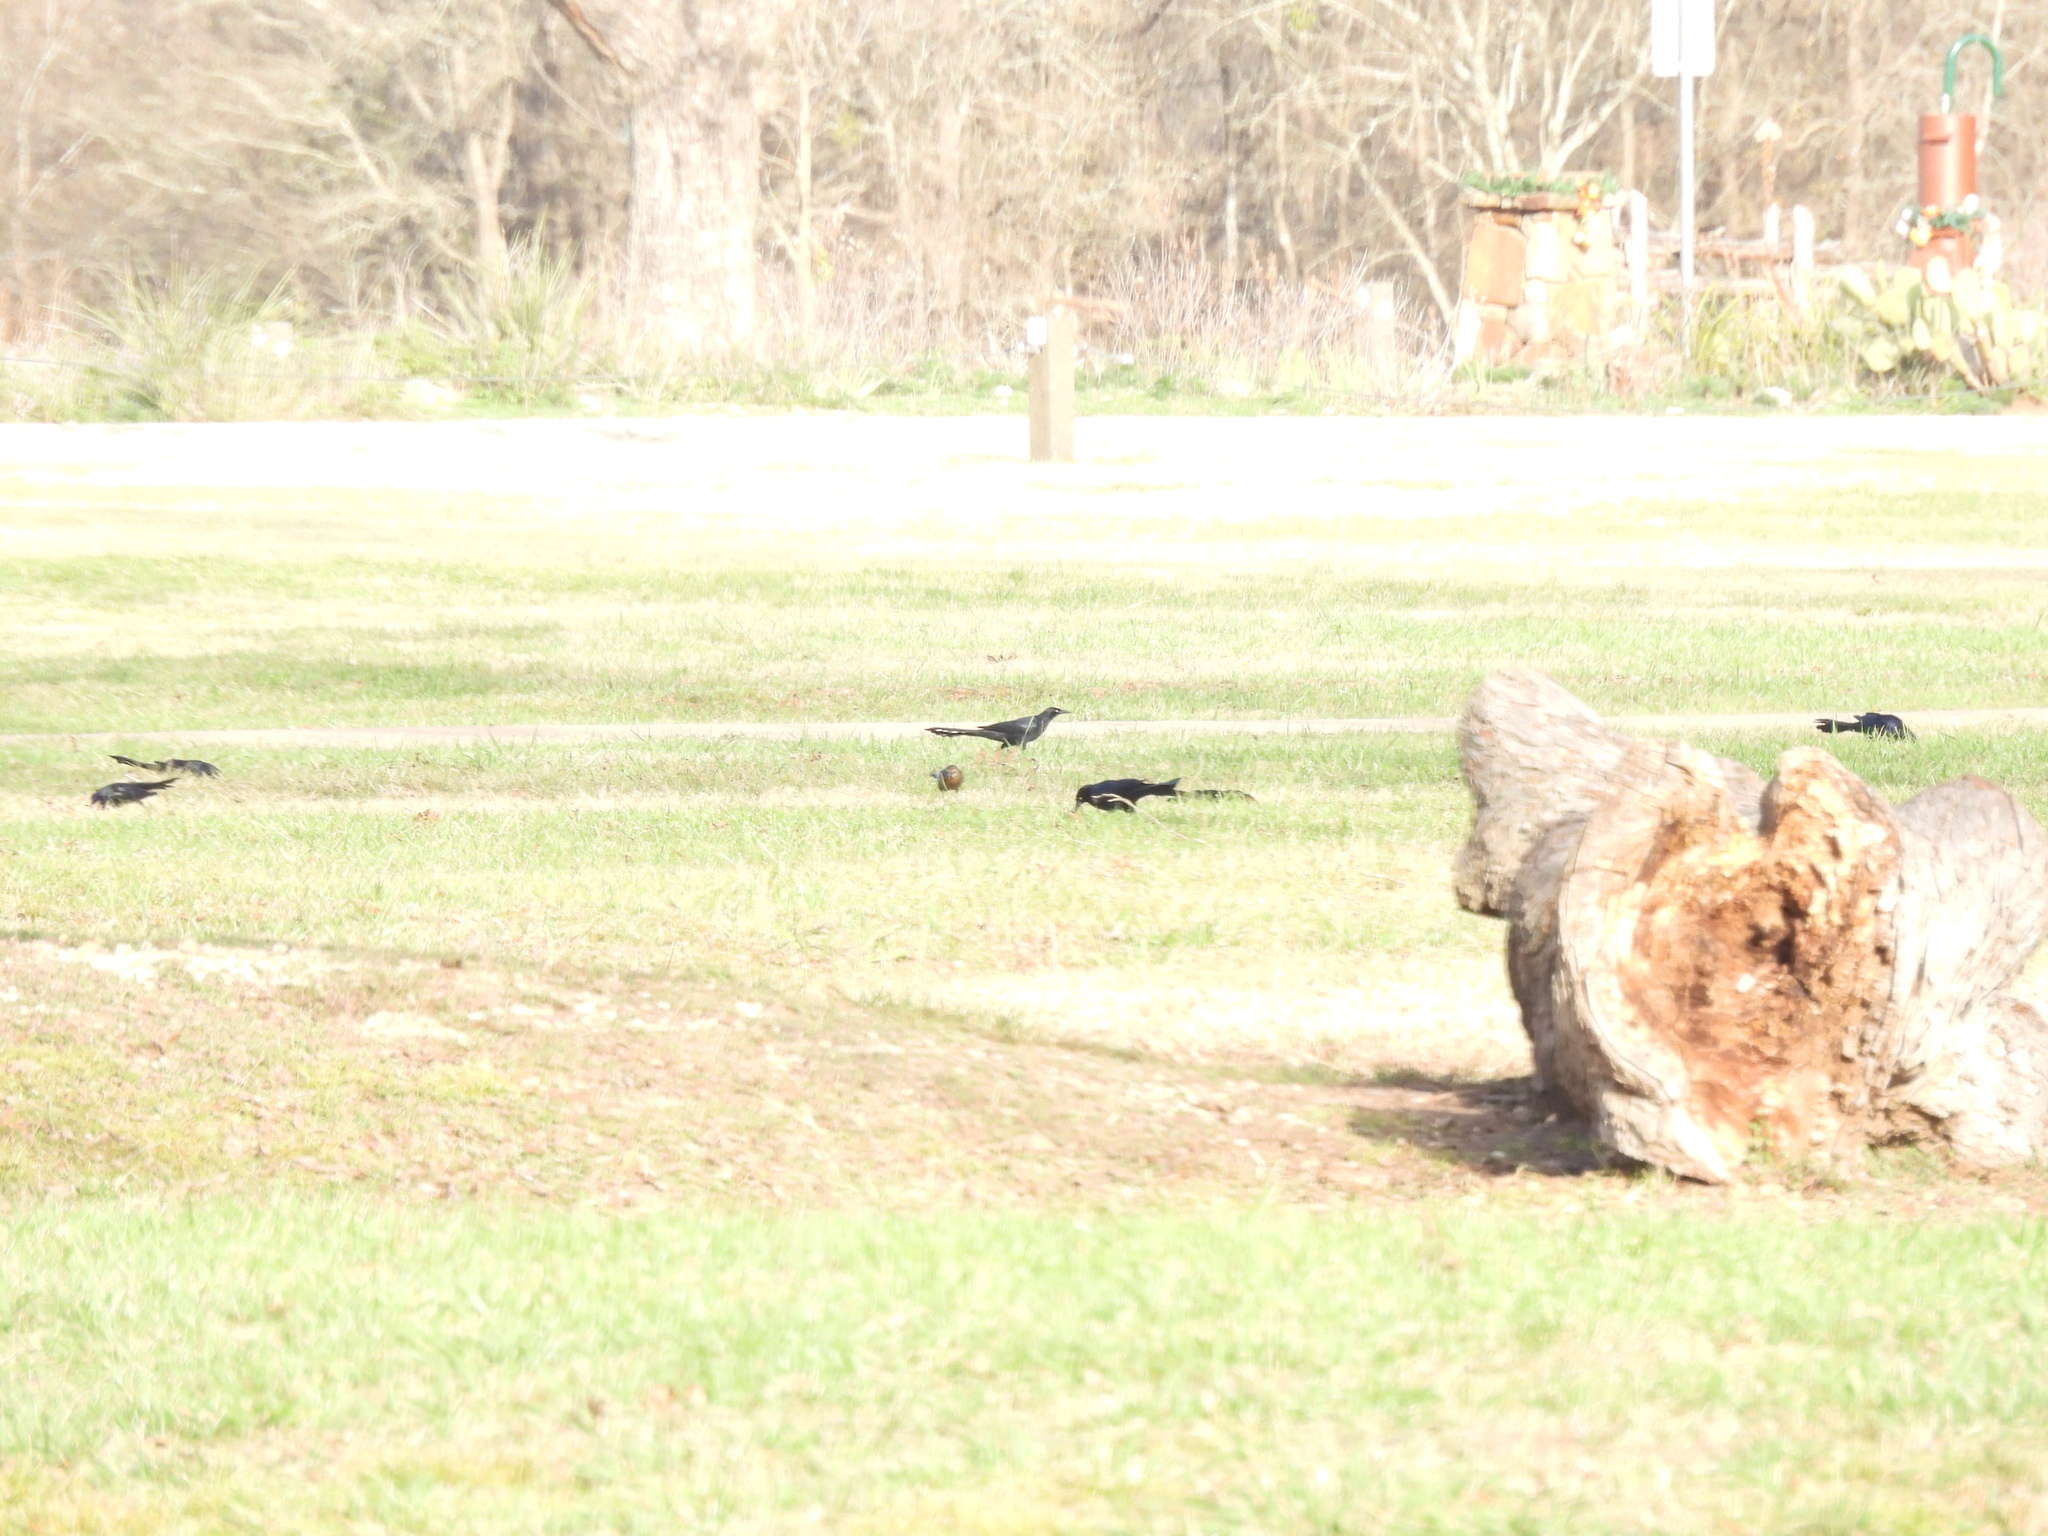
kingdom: Animalia
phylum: Chordata
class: Aves
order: Passeriformes
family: Icteridae
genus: Quiscalus
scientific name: Quiscalus mexicanus
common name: Great-tailed grackle
